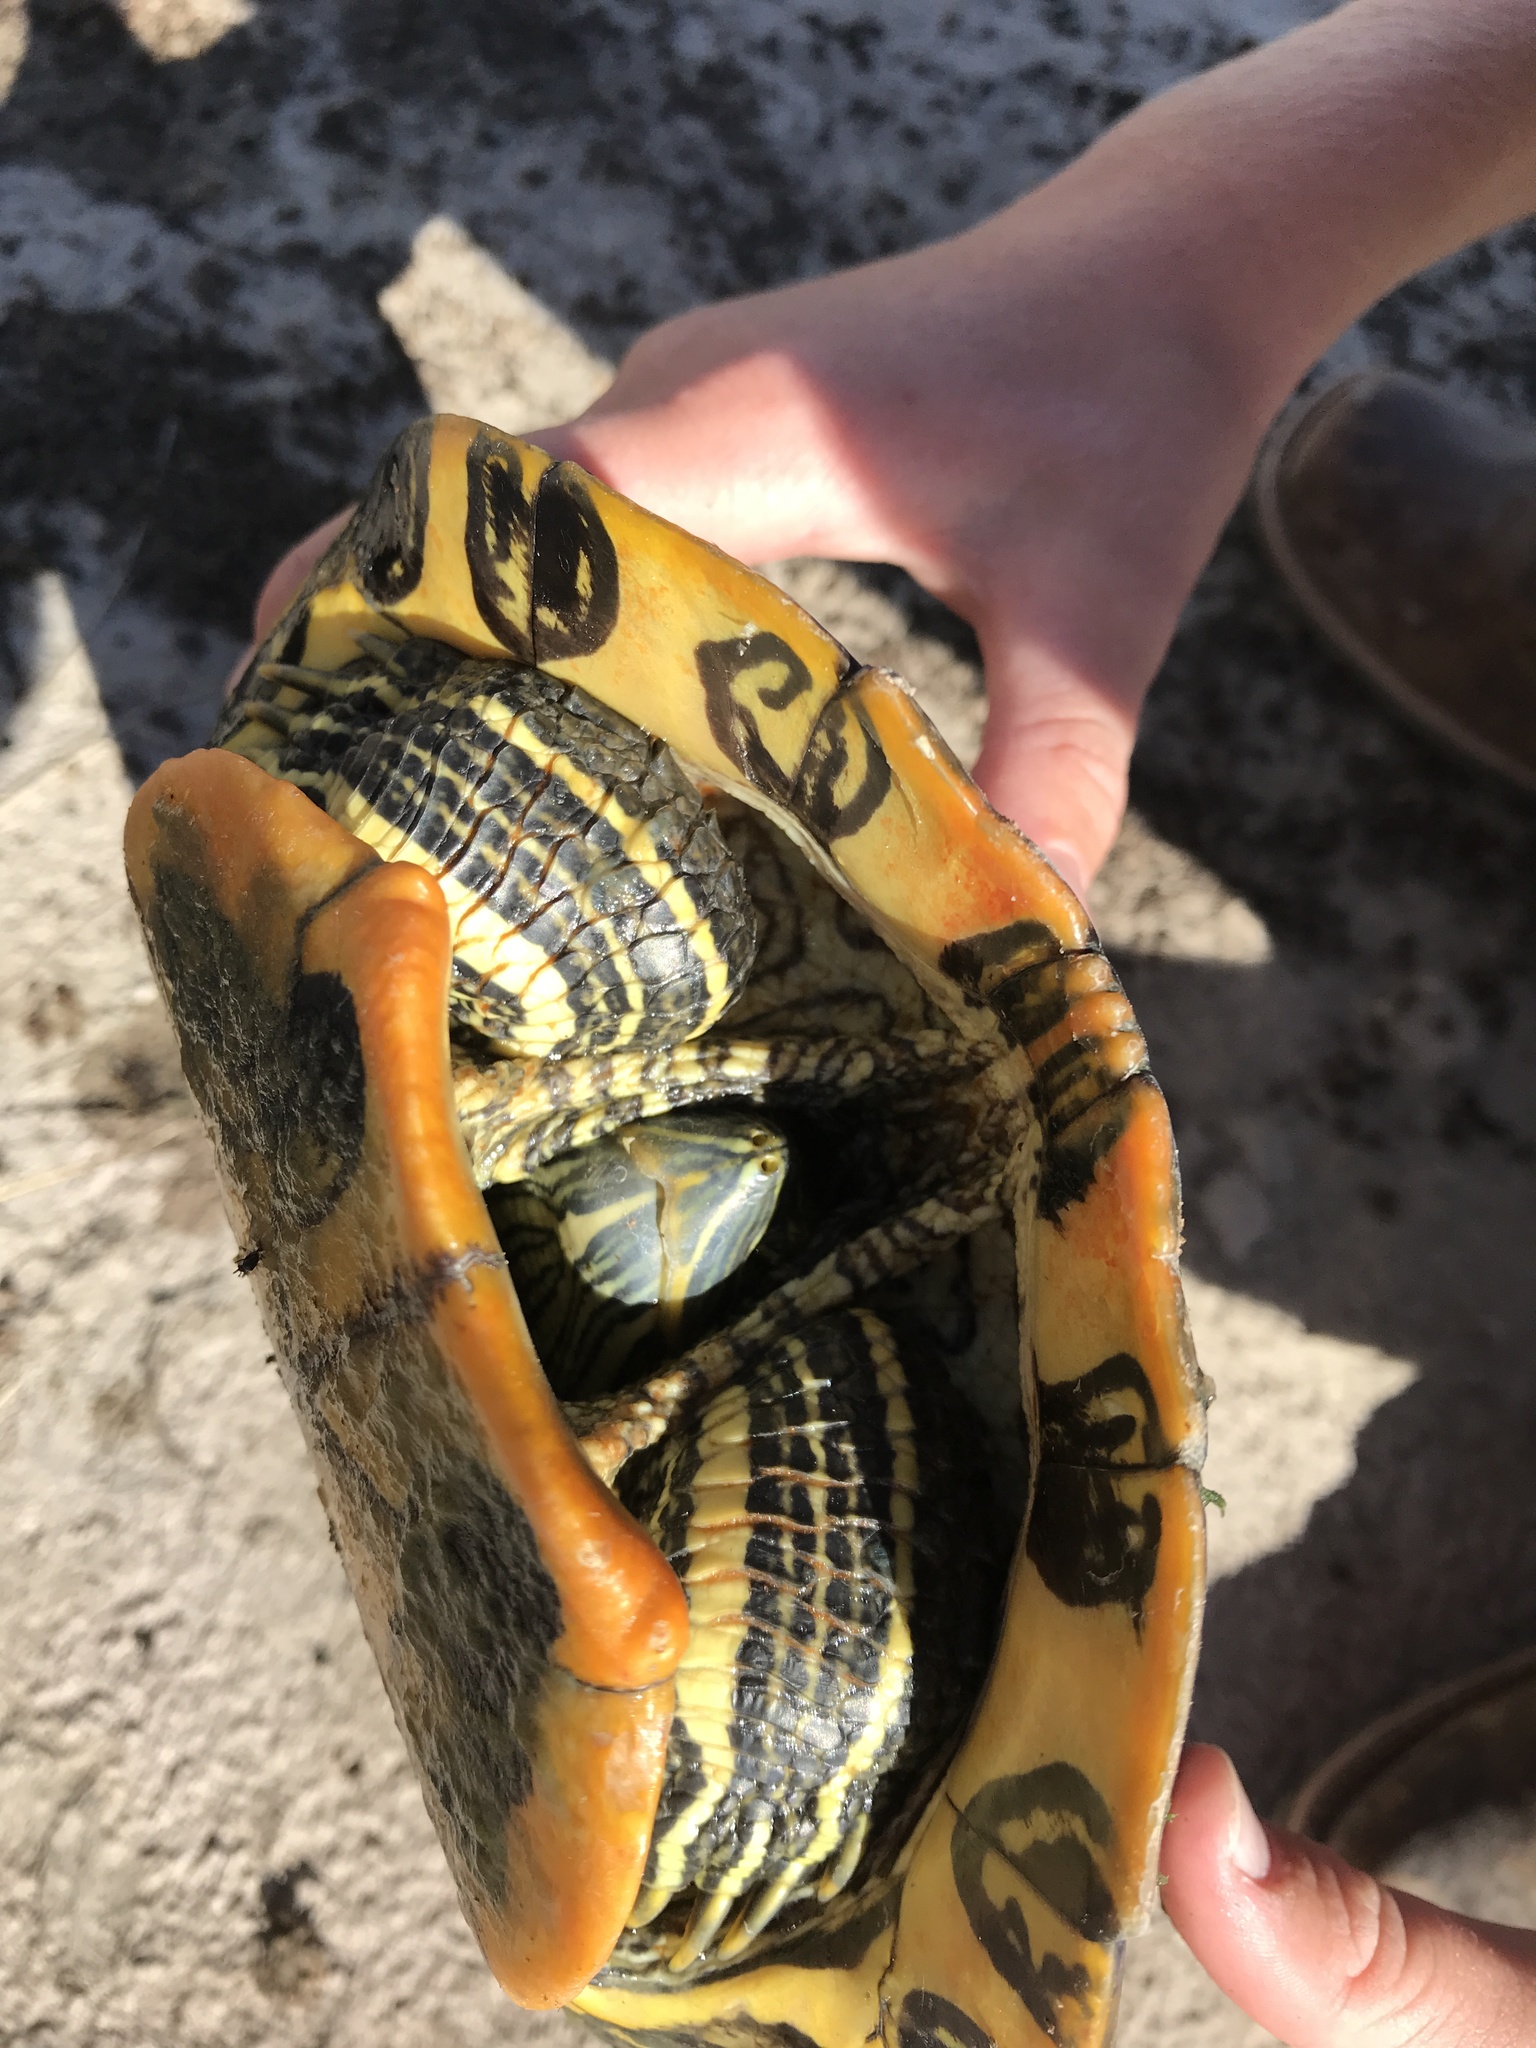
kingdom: Animalia
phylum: Chordata
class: Testudines
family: Emydidae
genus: Trachemys
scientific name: Trachemys scripta
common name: Slider
